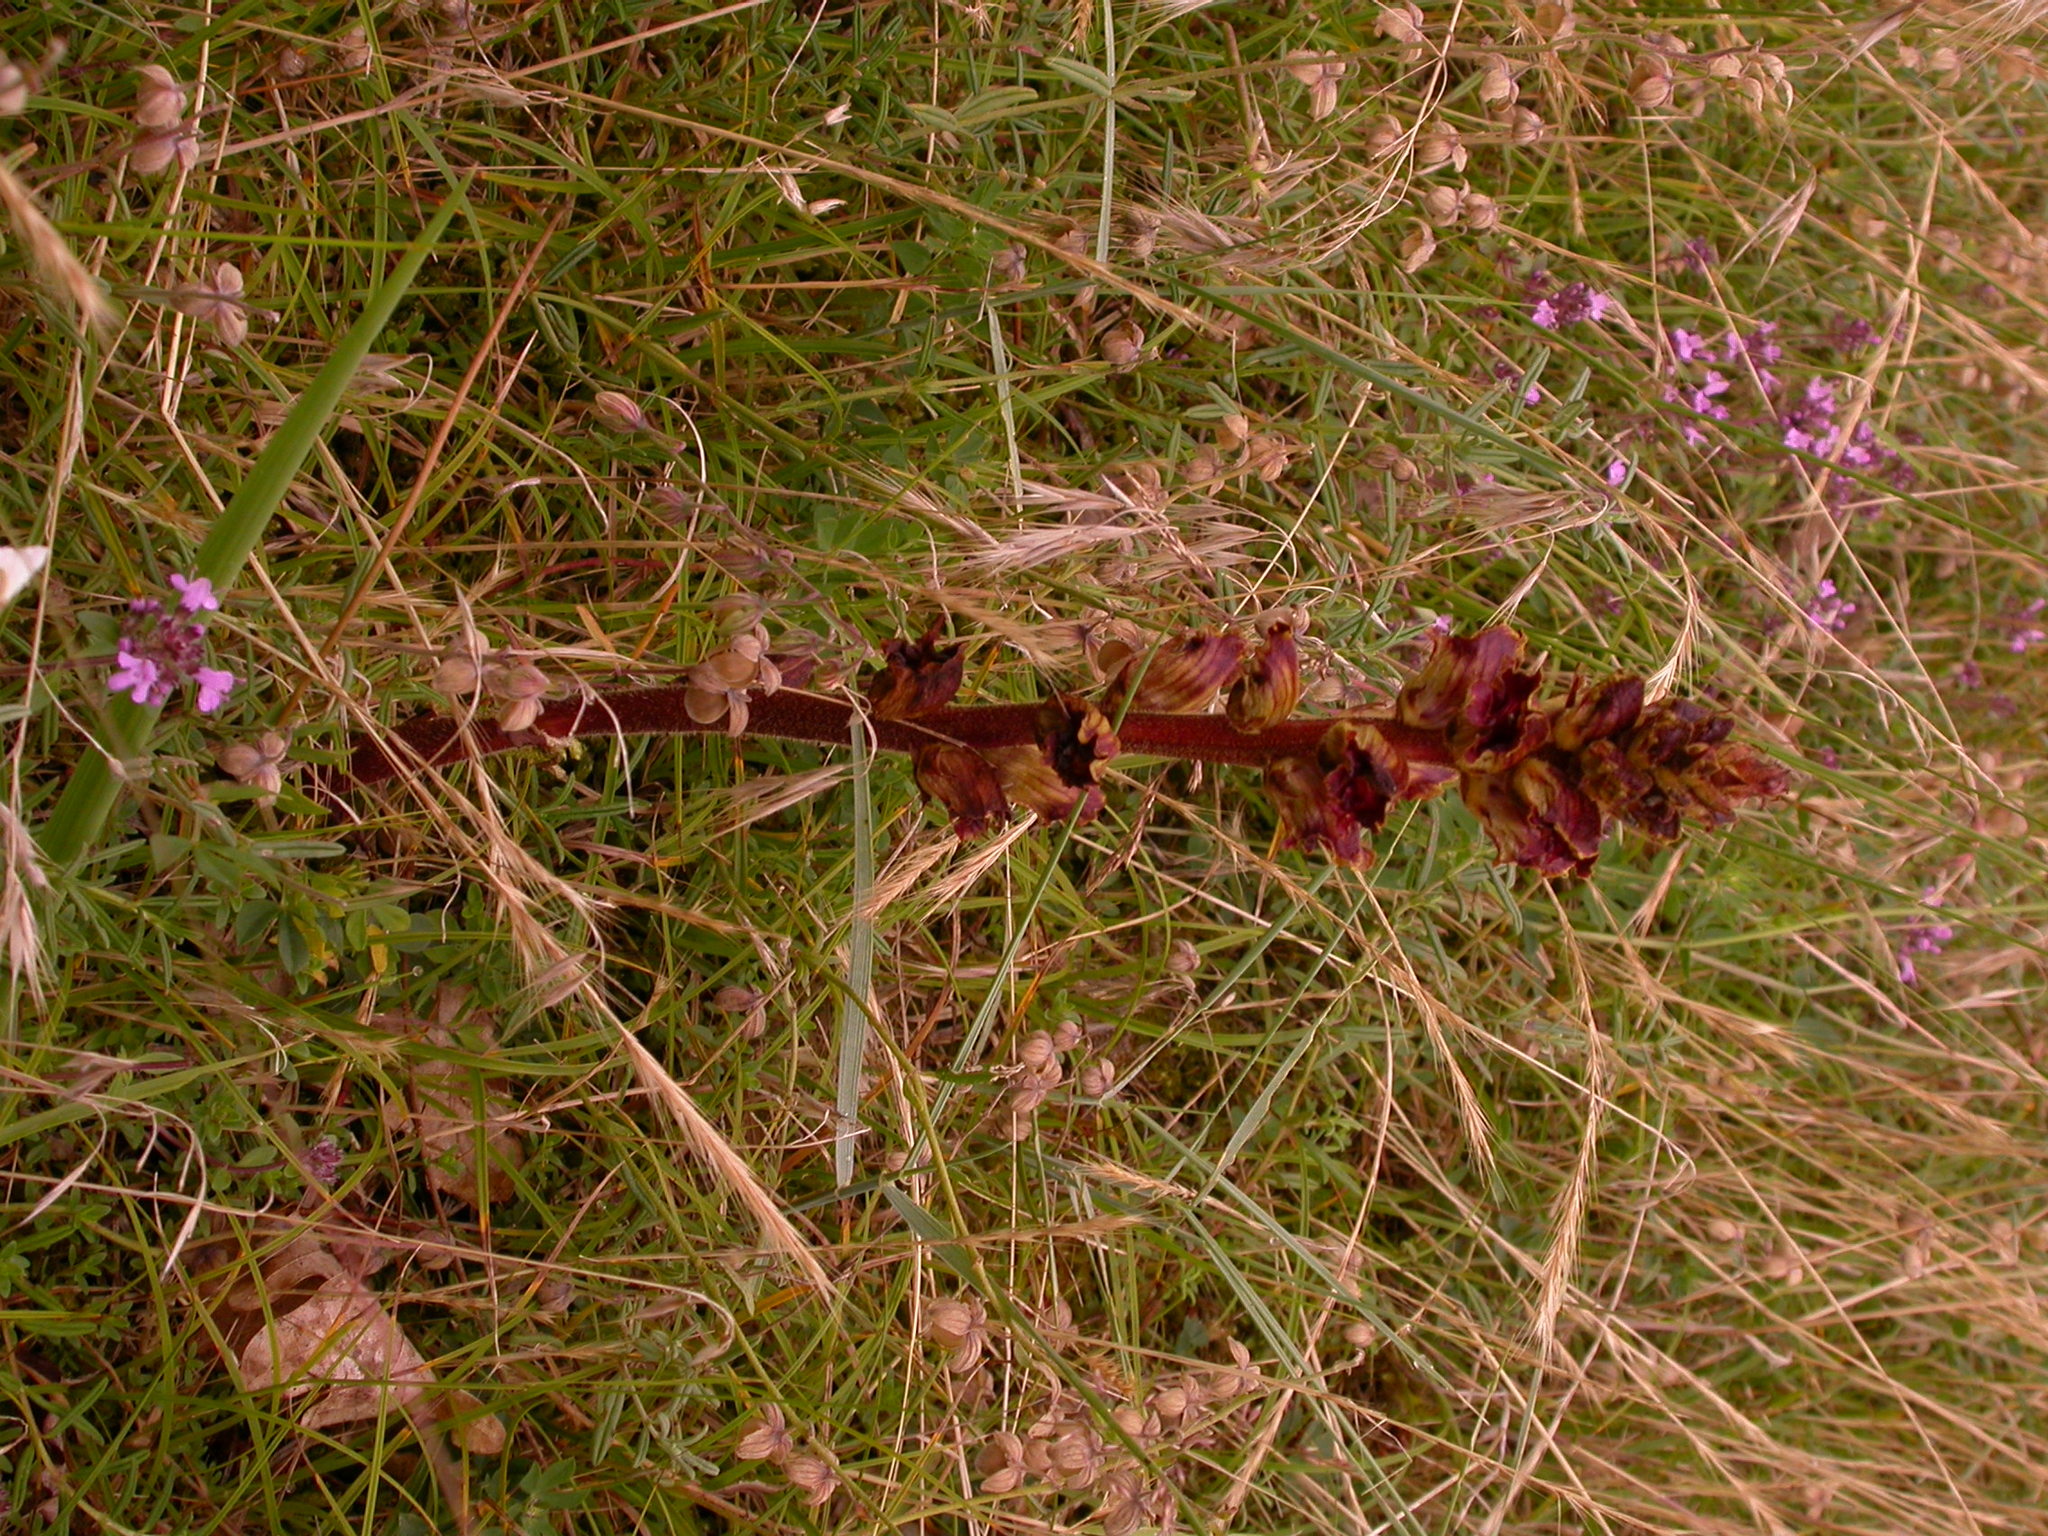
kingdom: Plantae
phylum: Tracheophyta
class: Magnoliopsida
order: Lamiales
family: Orobanchaceae
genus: Orobanche
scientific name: Orobanche gracilis
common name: Slender broomrape
